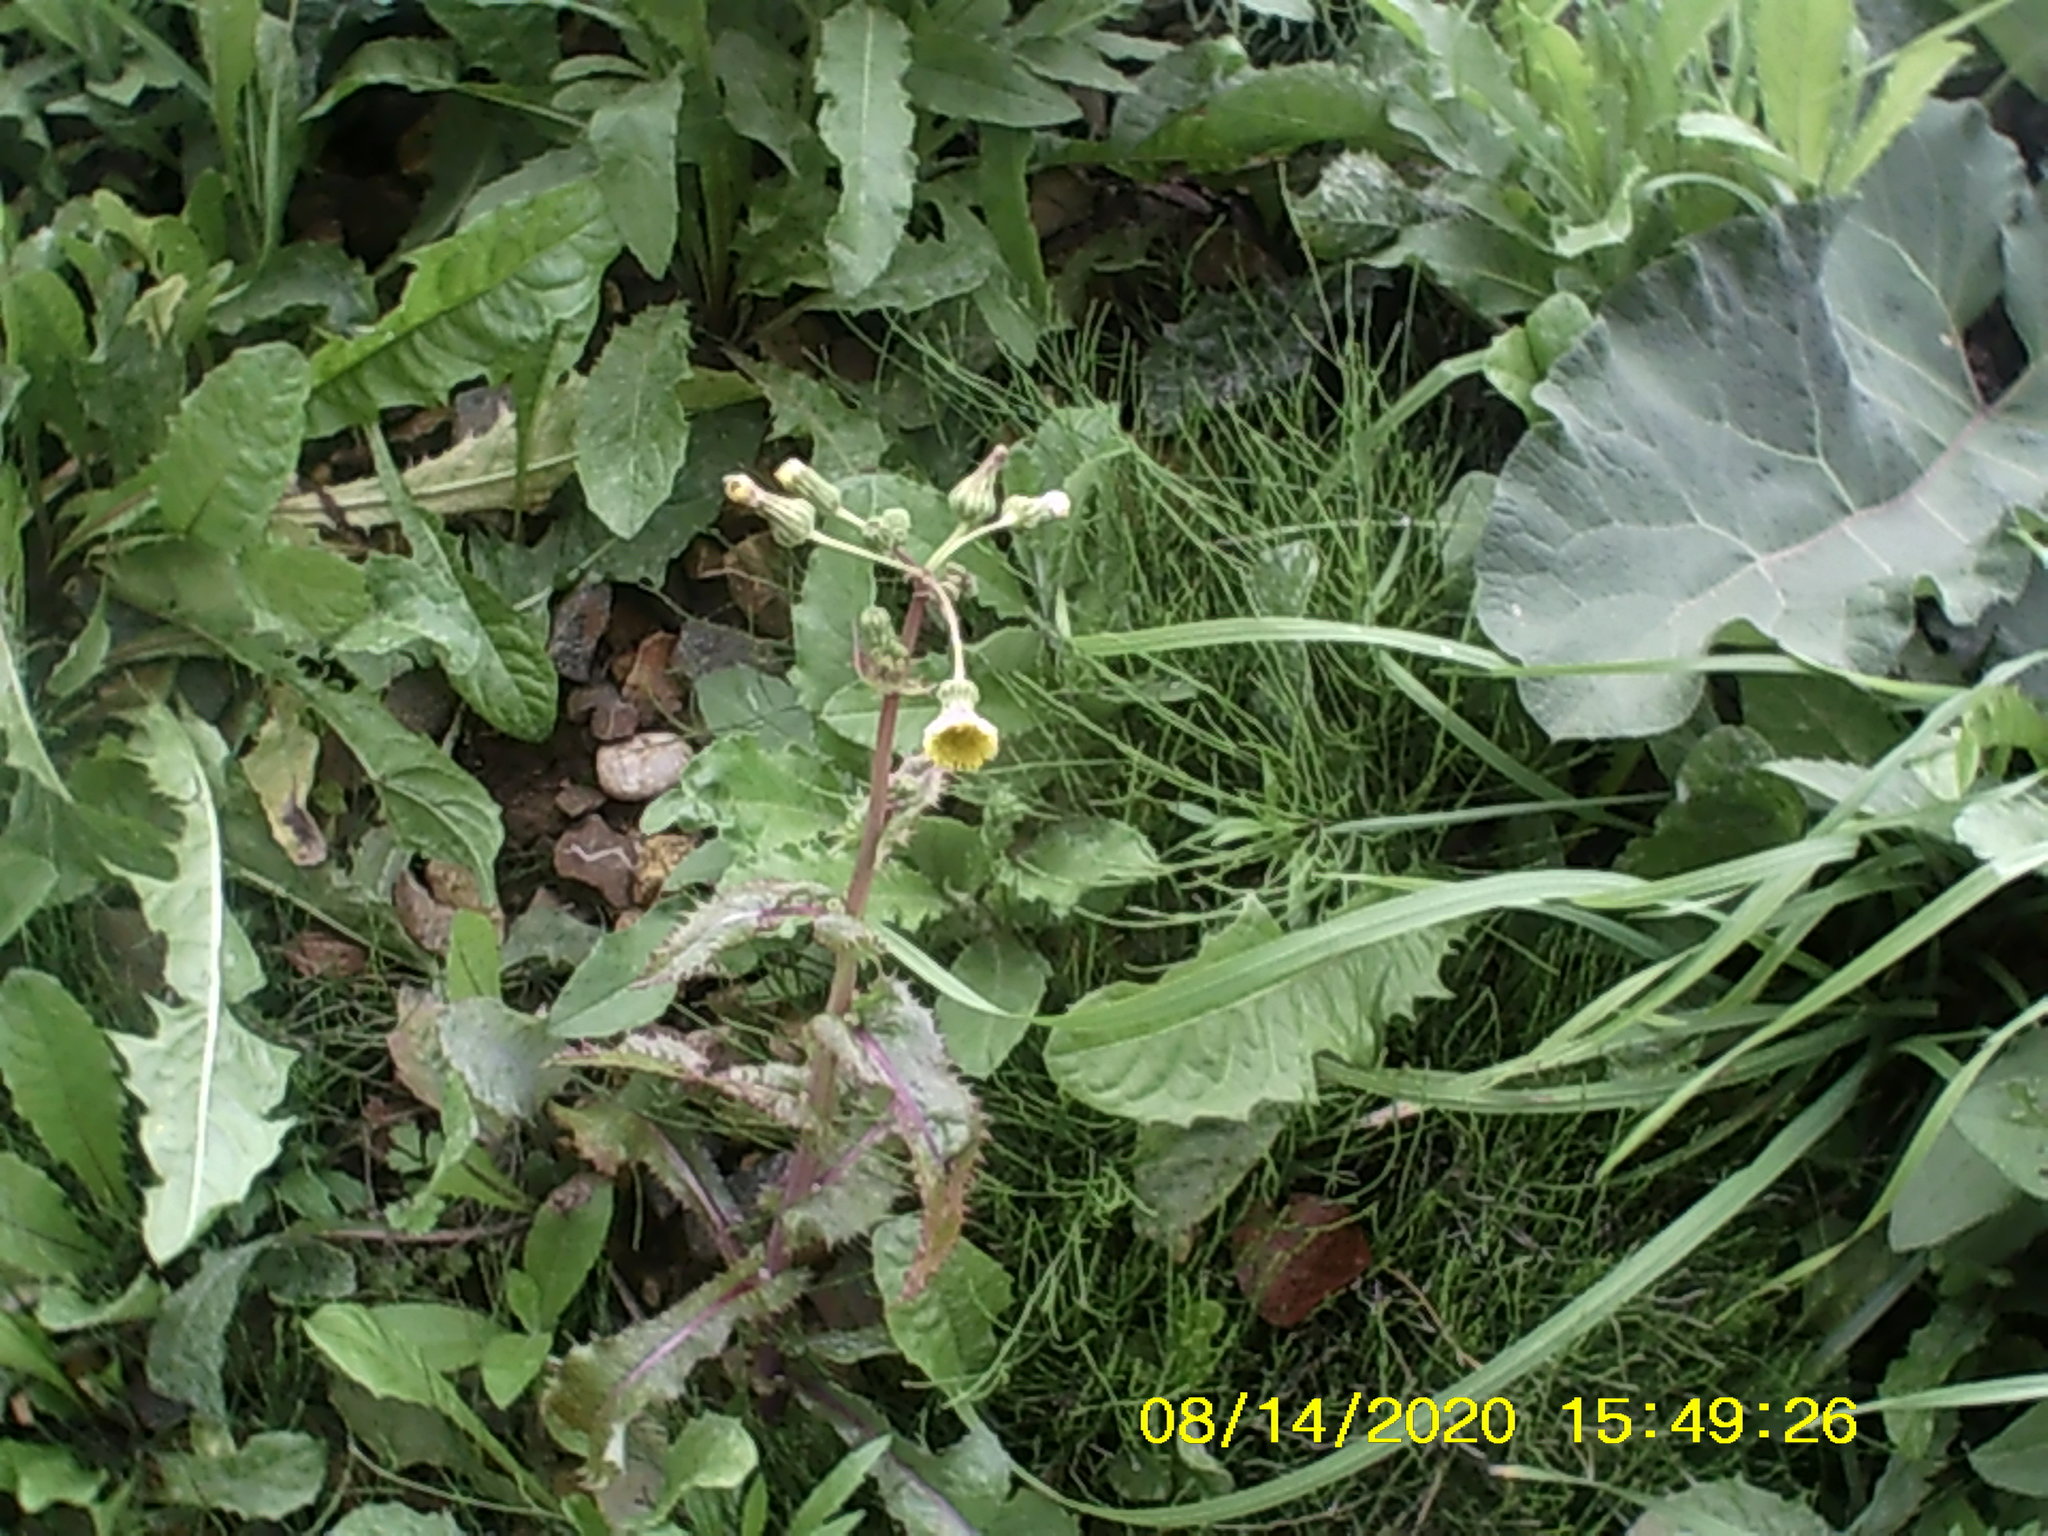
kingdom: Plantae
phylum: Tracheophyta
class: Magnoliopsida
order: Asterales
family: Asteraceae
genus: Sonchus
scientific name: Sonchus asper
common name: Prickly sow-thistle
